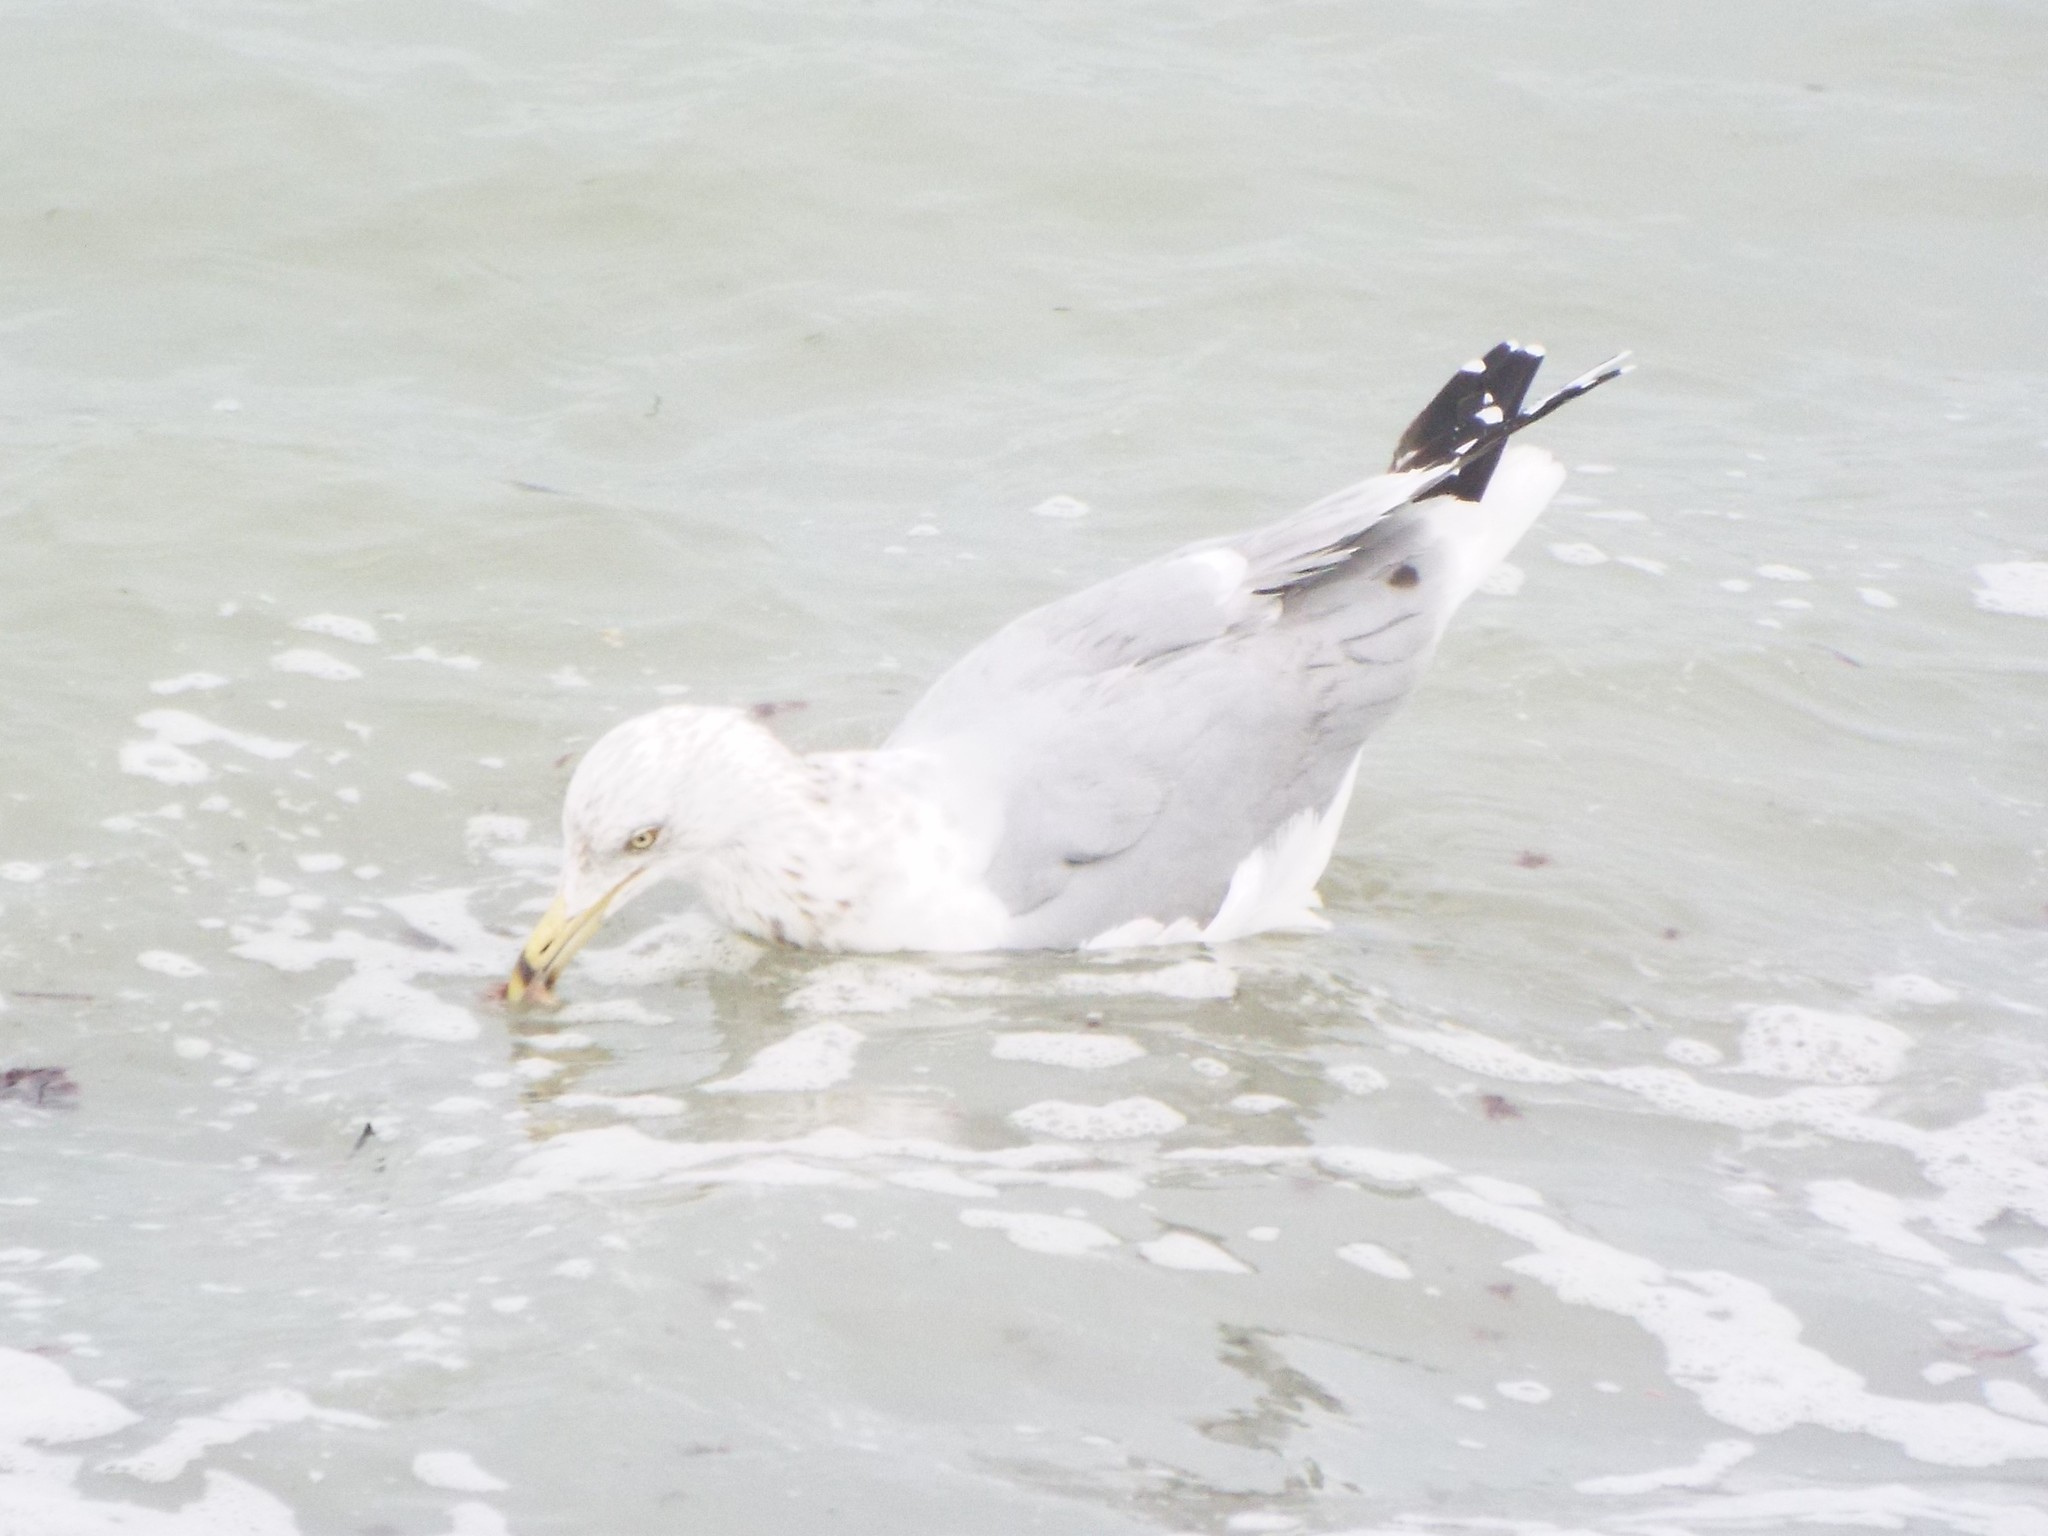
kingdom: Animalia
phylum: Chordata
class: Aves
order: Charadriiformes
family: Laridae
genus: Larus
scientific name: Larus argentatus
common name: Herring gull
